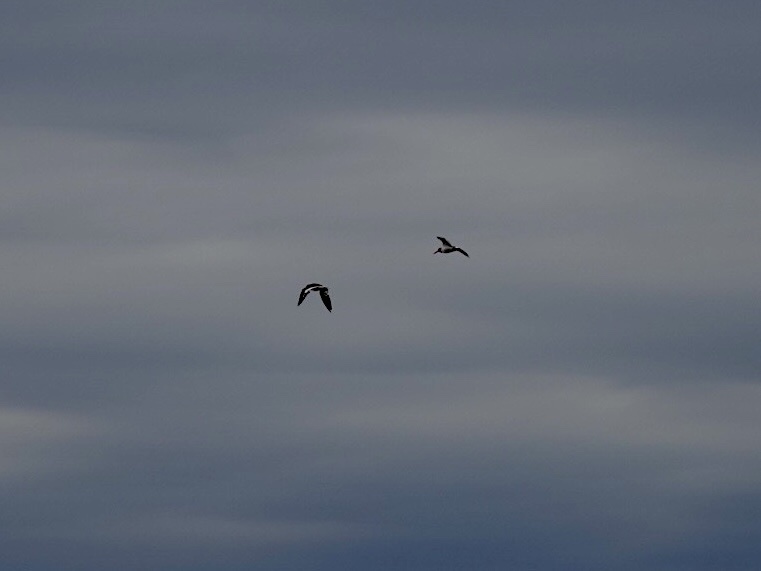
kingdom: Animalia
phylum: Chordata
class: Aves
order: Charadriiformes
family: Haematopodidae
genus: Haematopus
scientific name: Haematopus palliatus
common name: American oystercatcher
